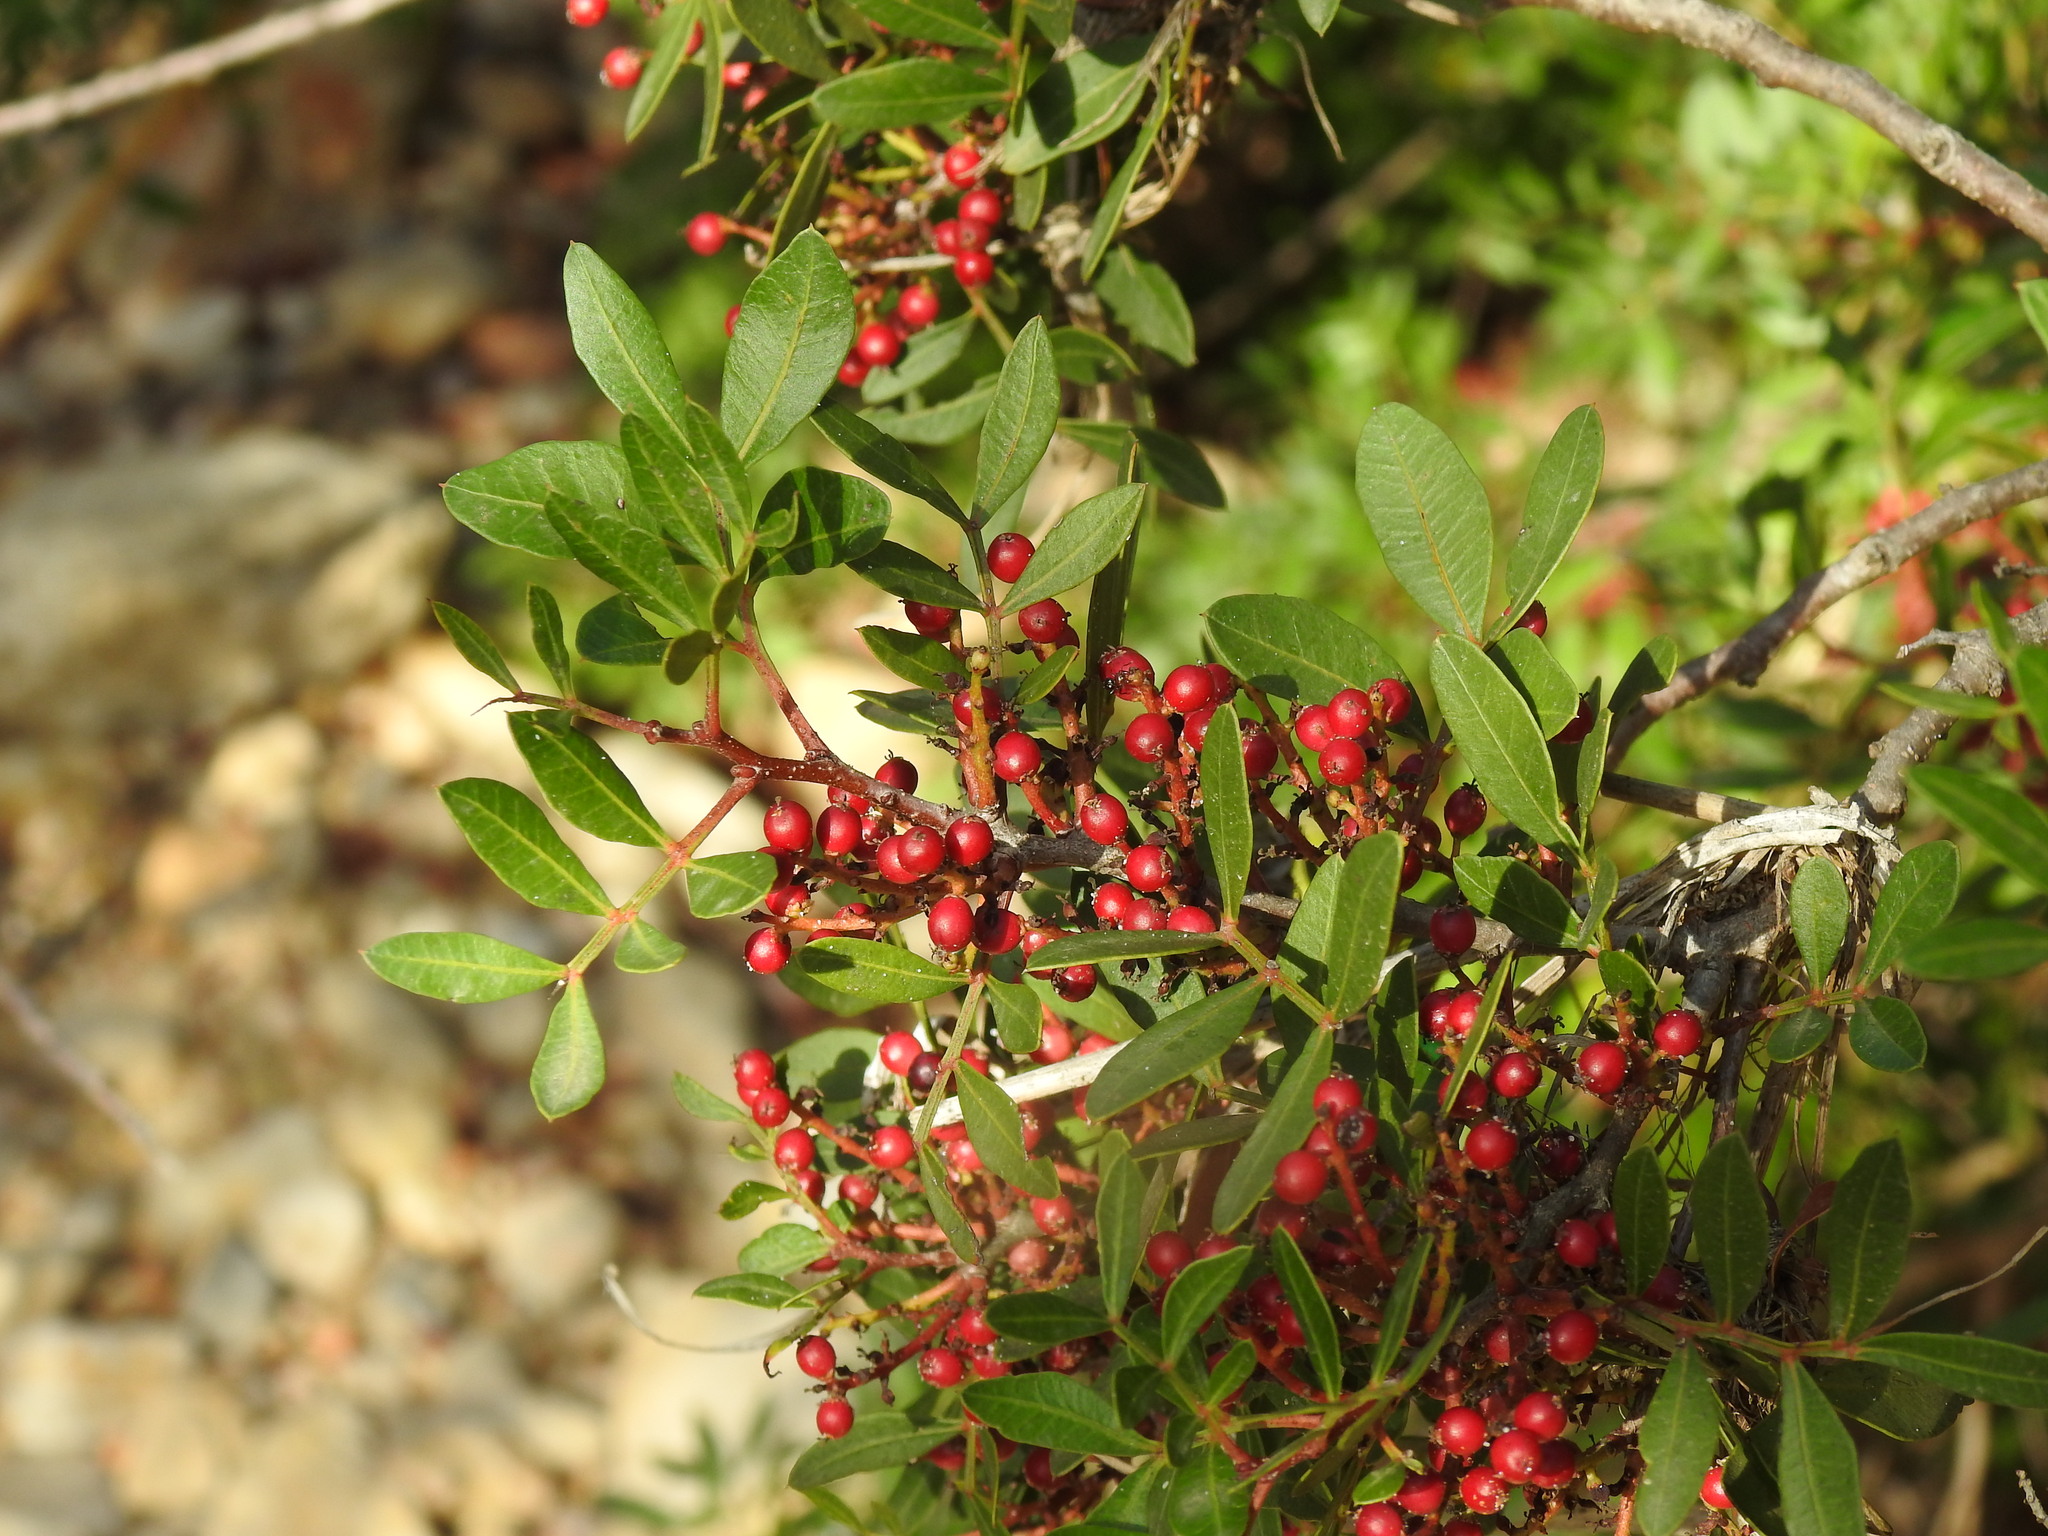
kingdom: Plantae
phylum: Tracheophyta
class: Magnoliopsida
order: Sapindales
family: Anacardiaceae
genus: Pistacia
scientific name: Pistacia lentiscus
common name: Lentisk
